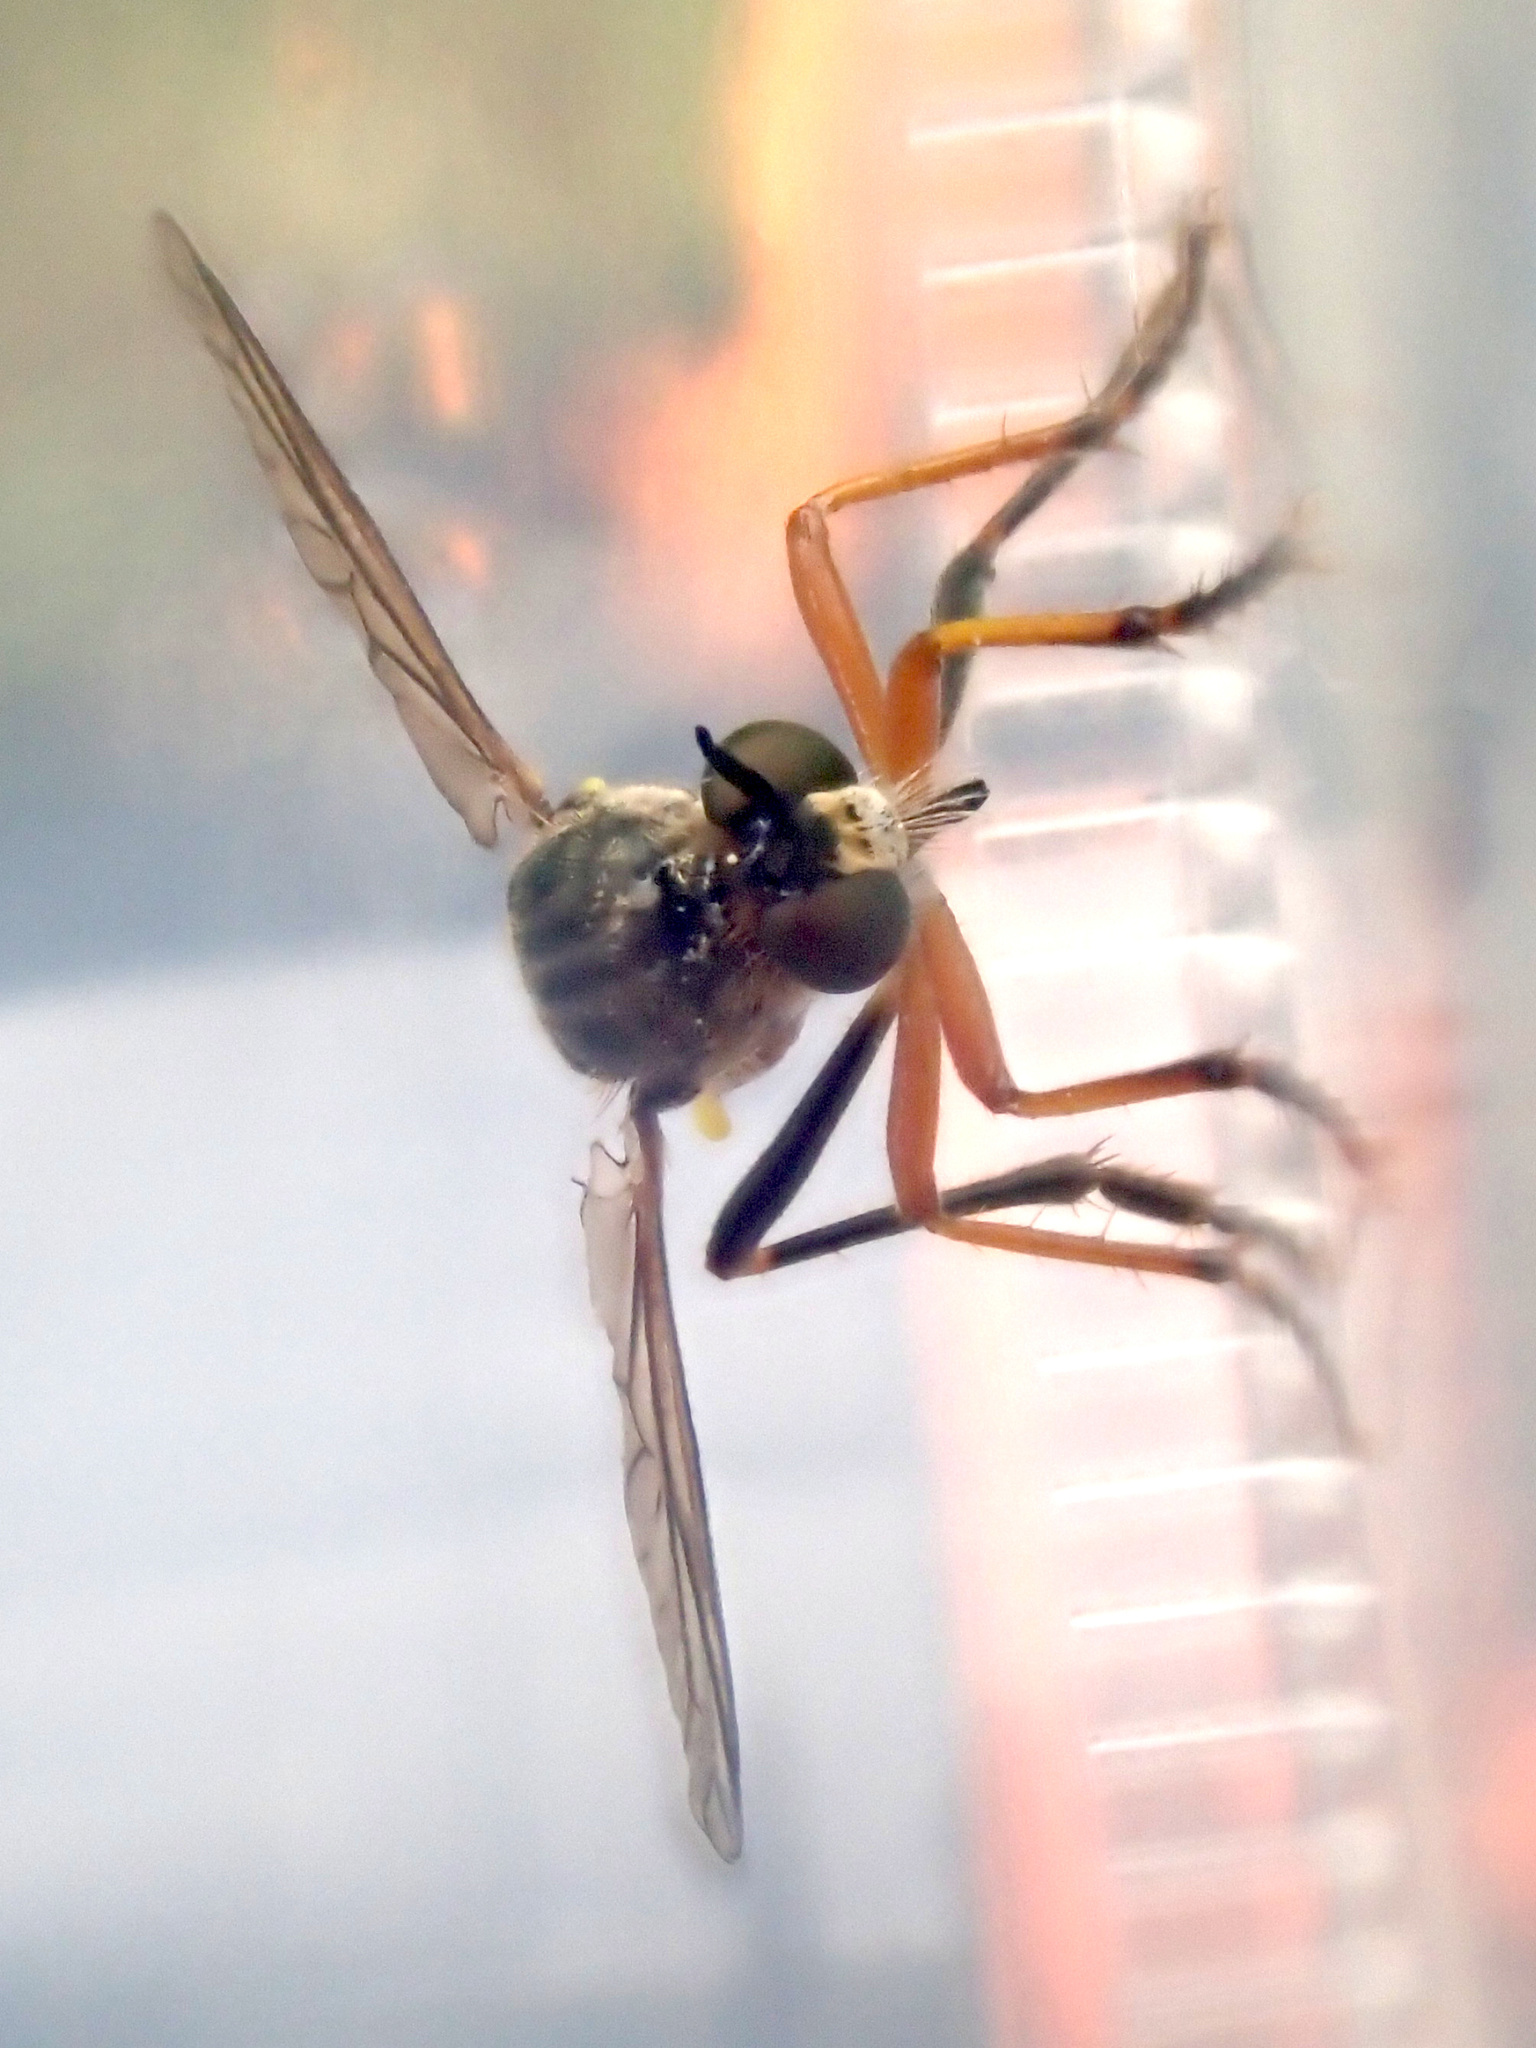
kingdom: Animalia
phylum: Arthropoda
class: Insecta
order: Diptera
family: Asilidae
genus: Dioctria
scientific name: Dioctria rufipes
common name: Common red-legged robberfly
